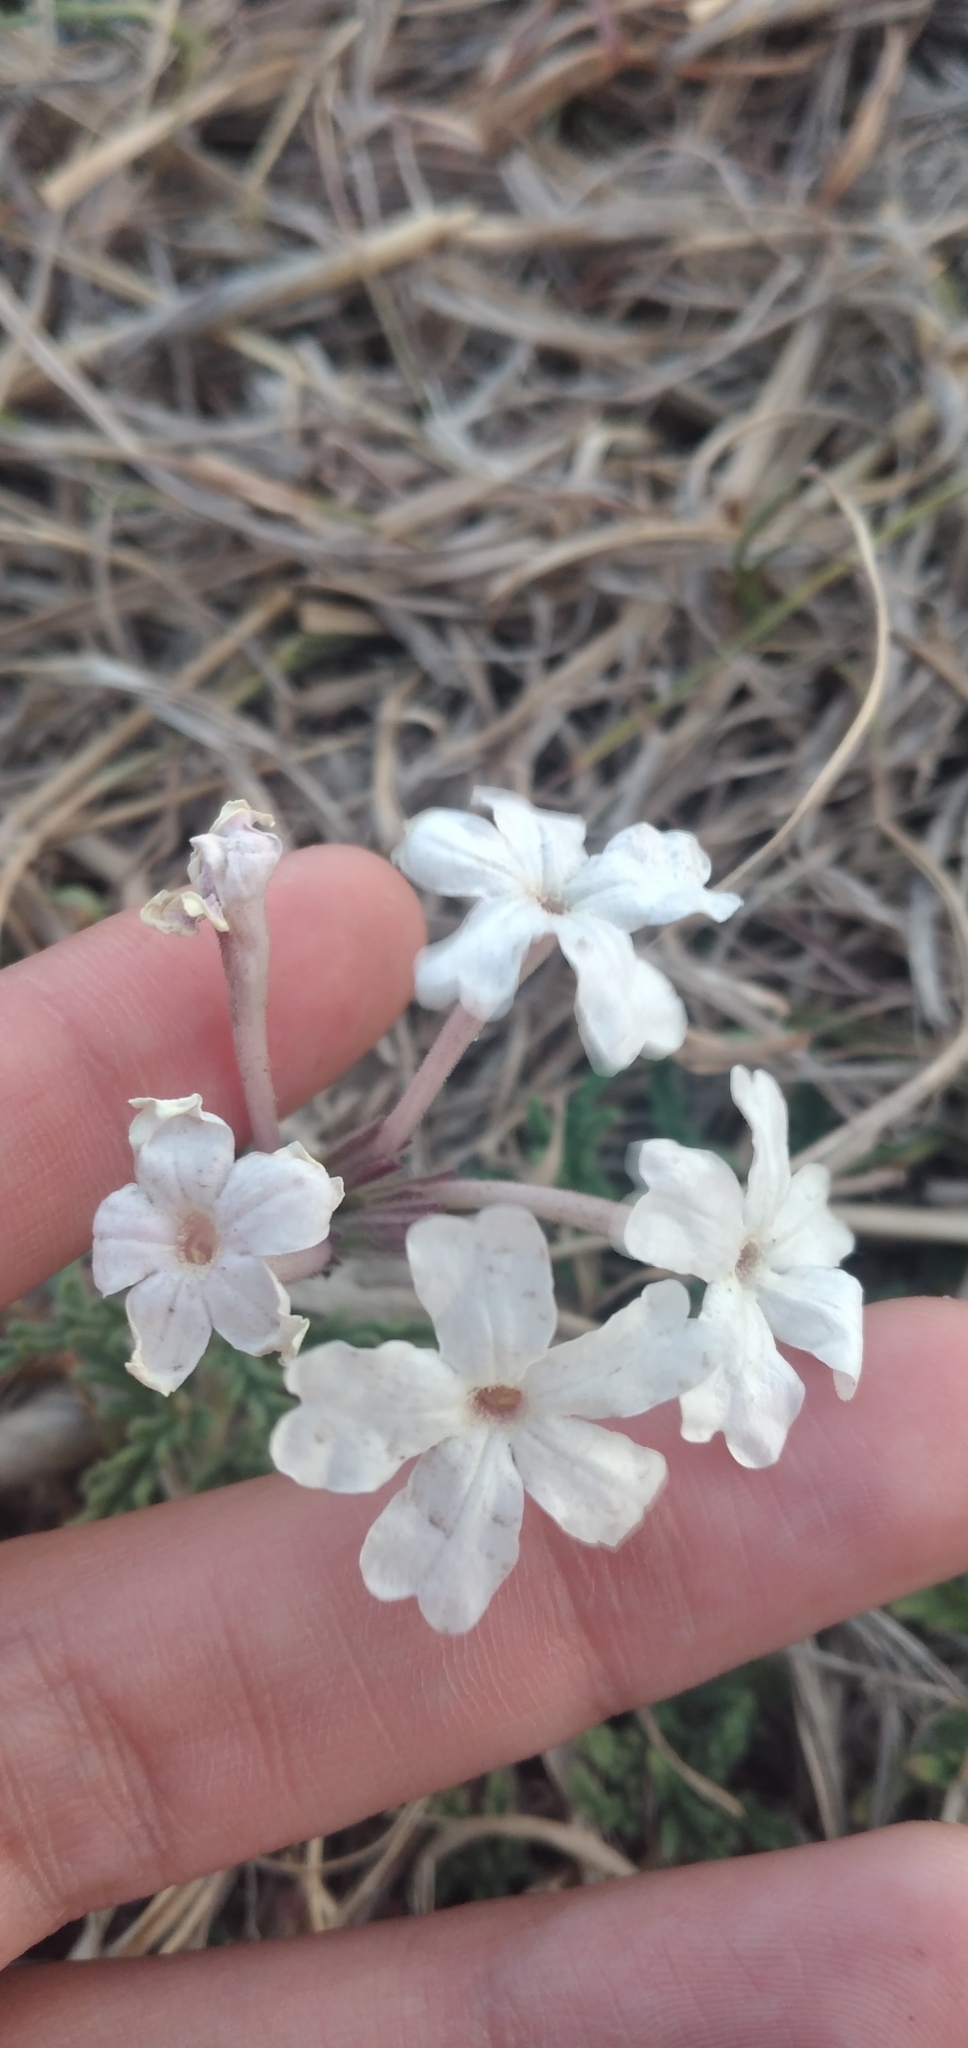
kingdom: Plantae
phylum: Tracheophyta
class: Magnoliopsida
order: Lamiales
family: Verbenaceae
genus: Verbena
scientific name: Verbena platensis
